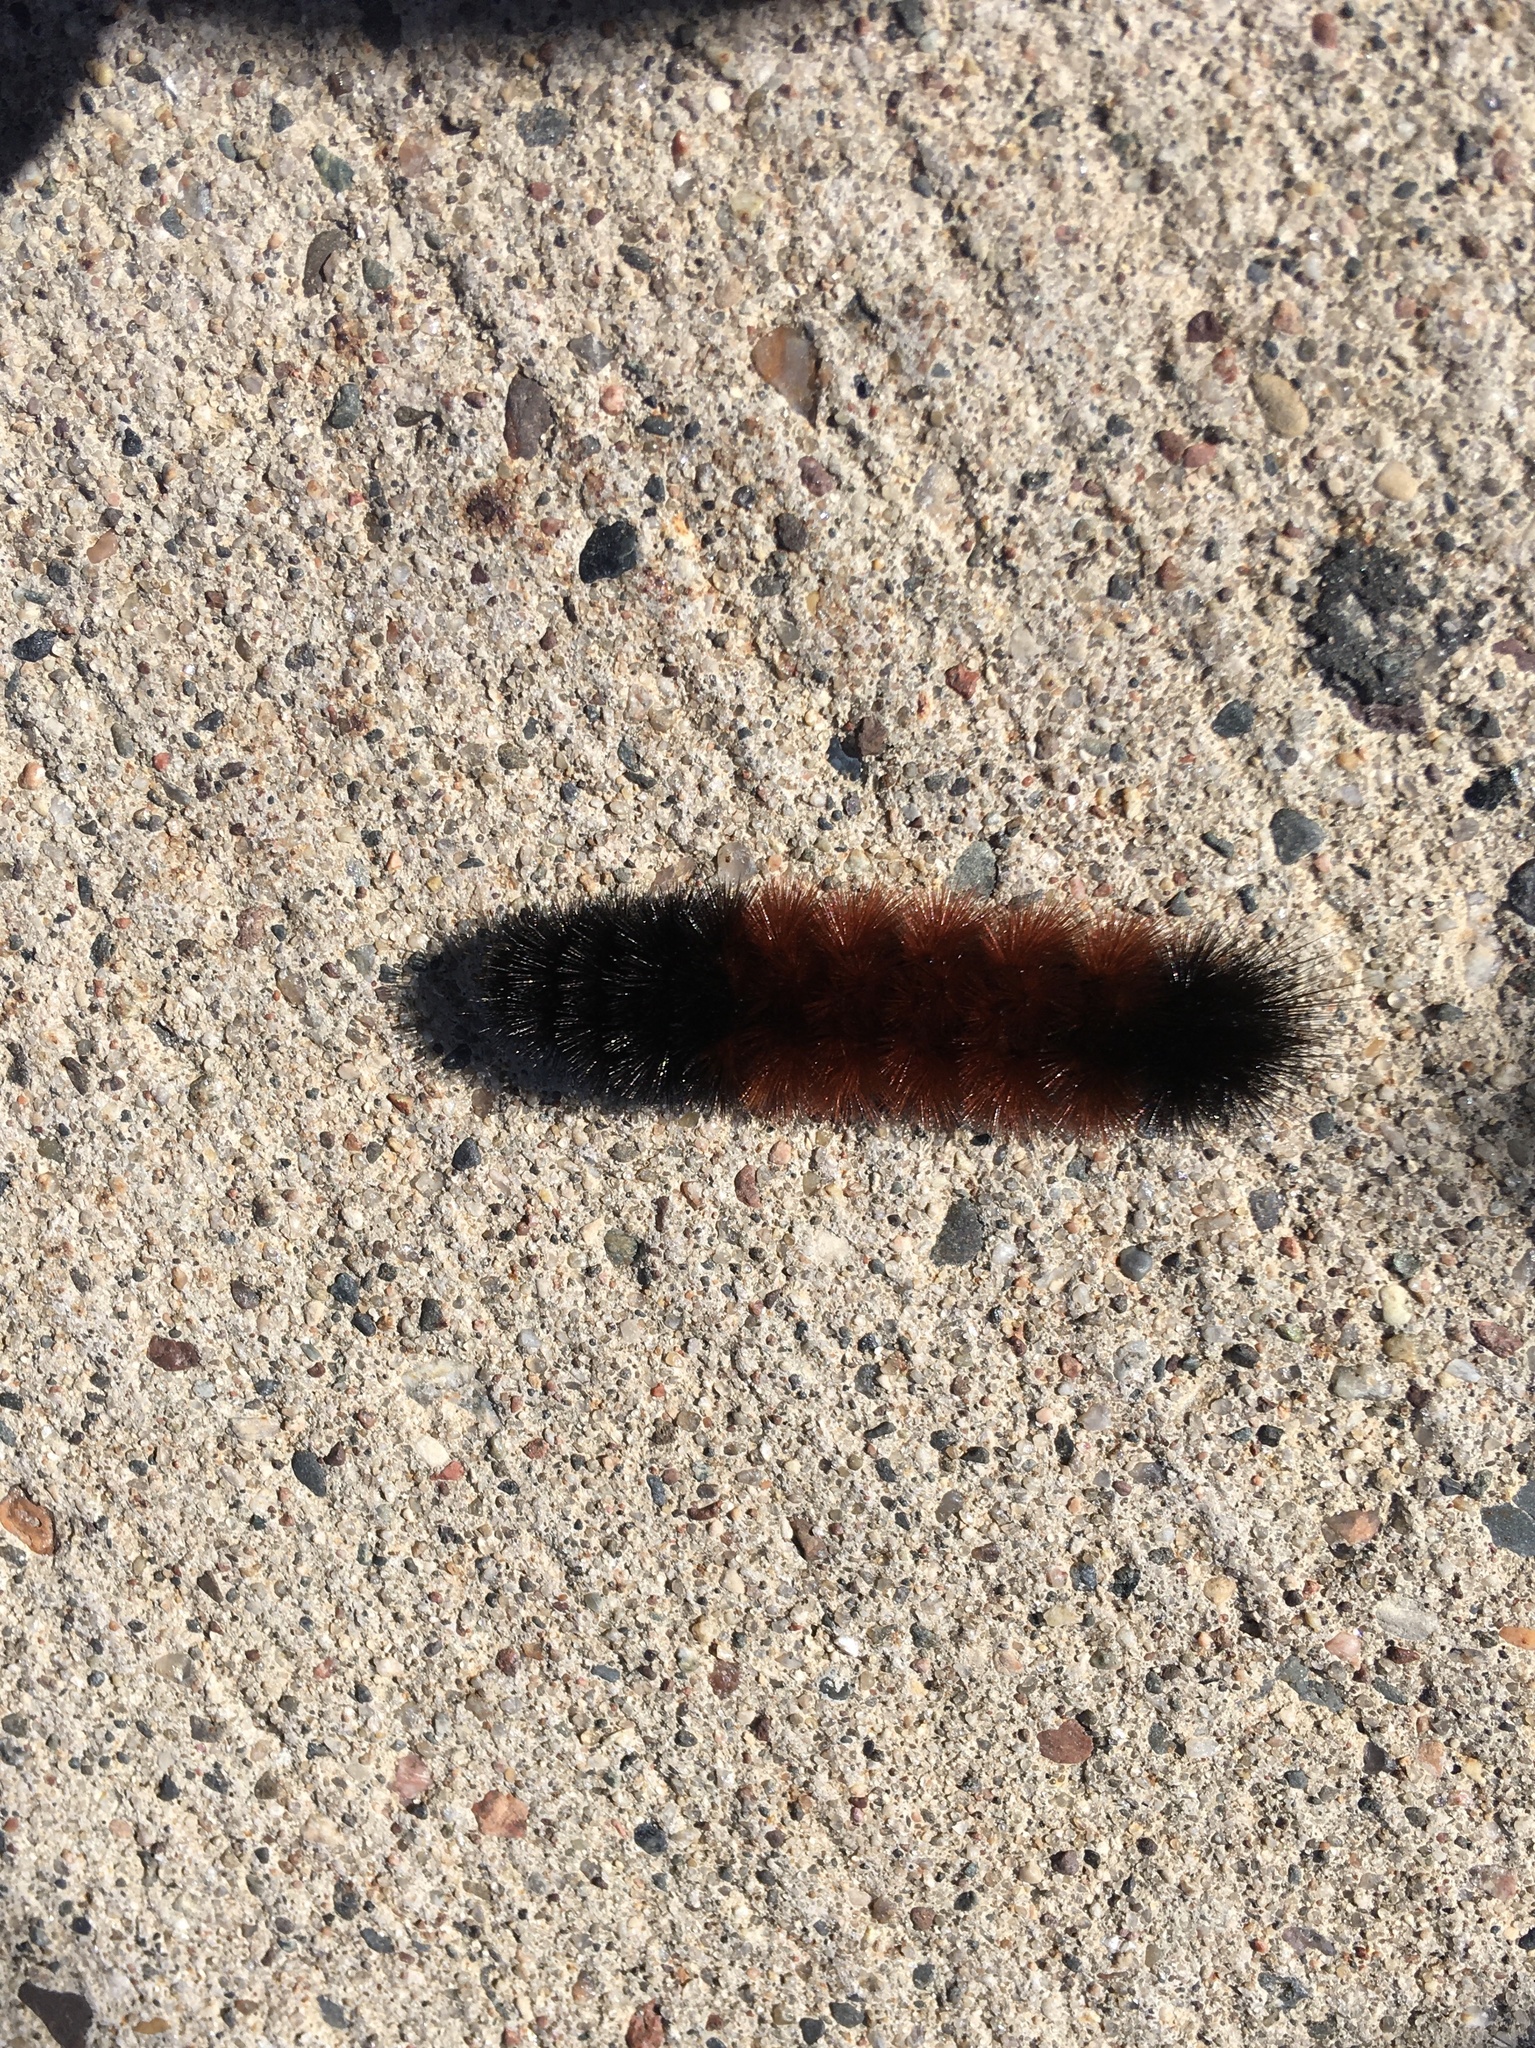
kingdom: Animalia
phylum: Arthropoda
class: Insecta
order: Lepidoptera
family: Erebidae
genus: Pyrrharctia
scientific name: Pyrrharctia isabella
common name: Isabella tiger moth
